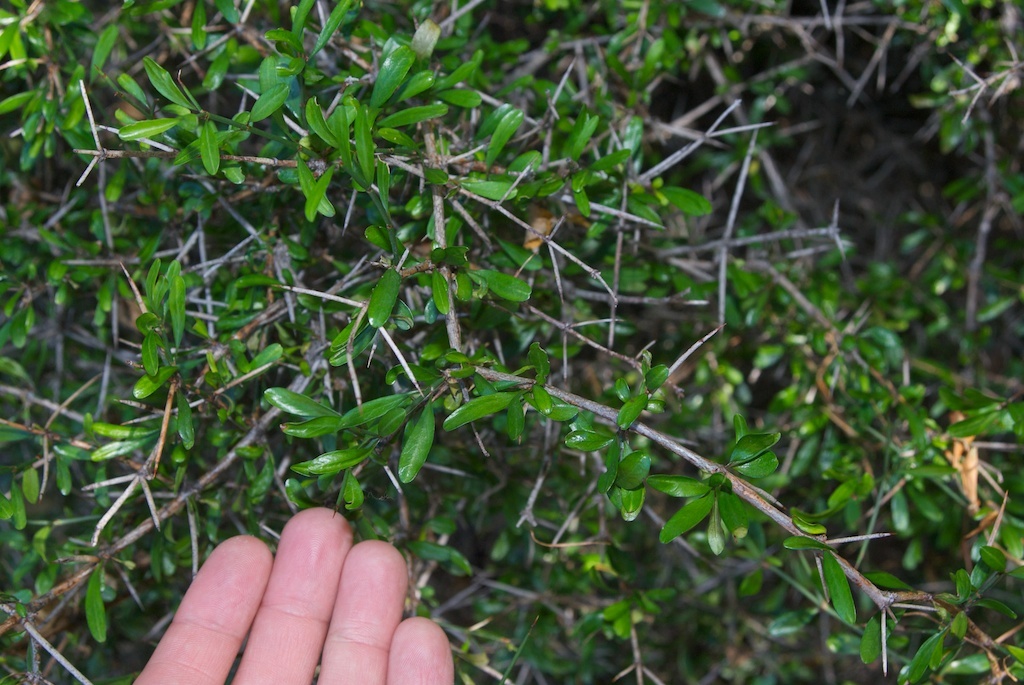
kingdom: Plantae
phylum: Tracheophyta
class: Magnoliopsida
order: Rosales
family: Rhamnaceae
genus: Discaria
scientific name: Discaria toumatou
